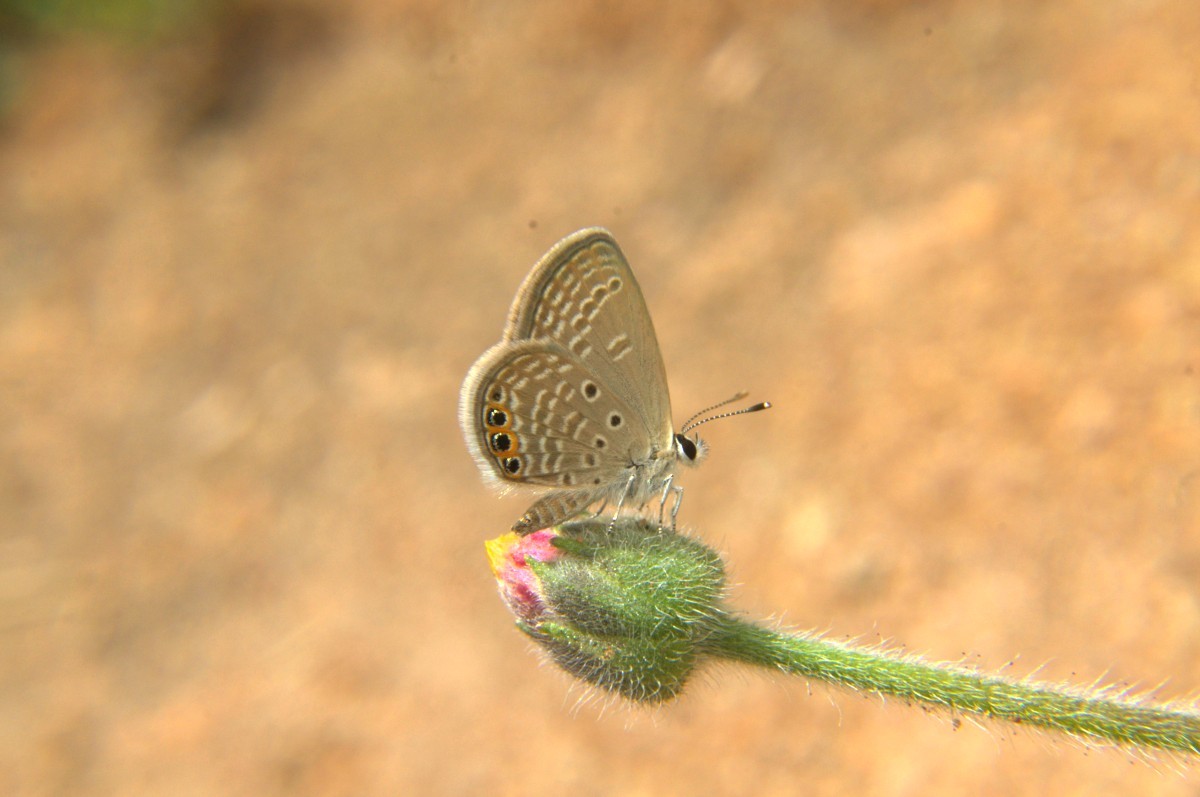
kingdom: Animalia
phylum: Arthropoda
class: Insecta
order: Lepidoptera
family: Lycaenidae
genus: Freyeria
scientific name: Freyeria trochylus
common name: Grass jewel
